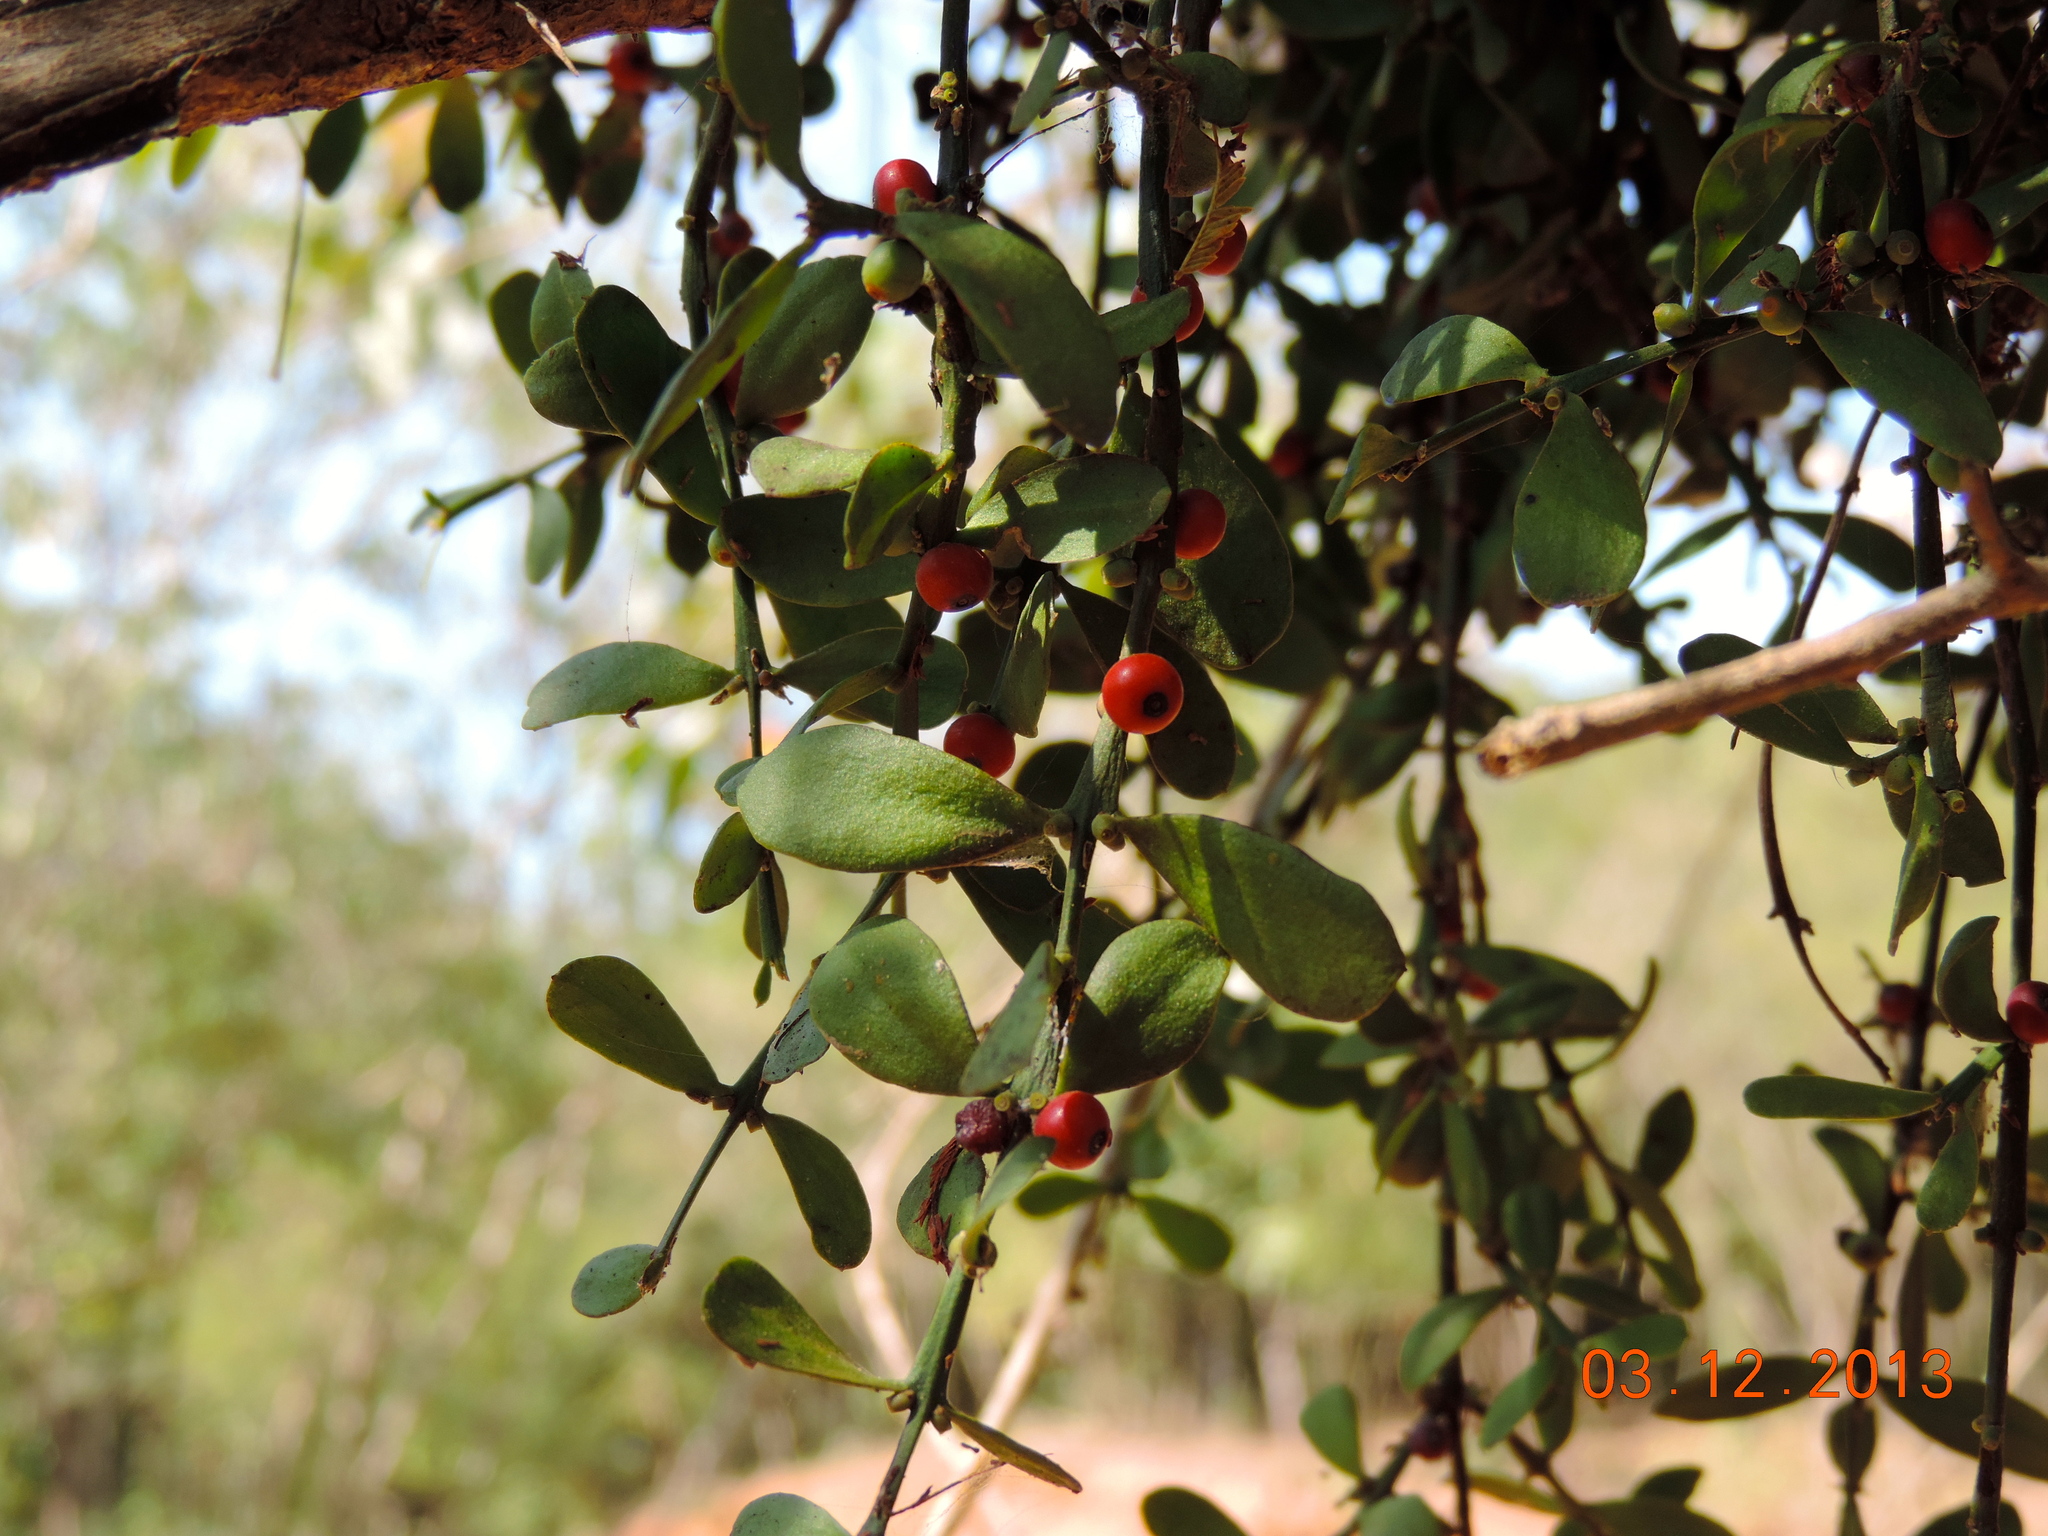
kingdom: Plantae
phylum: Tracheophyta
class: Magnoliopsida
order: Santalales
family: Loranthaceae
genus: Phthirusa
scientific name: Phthirusa inconspicua
